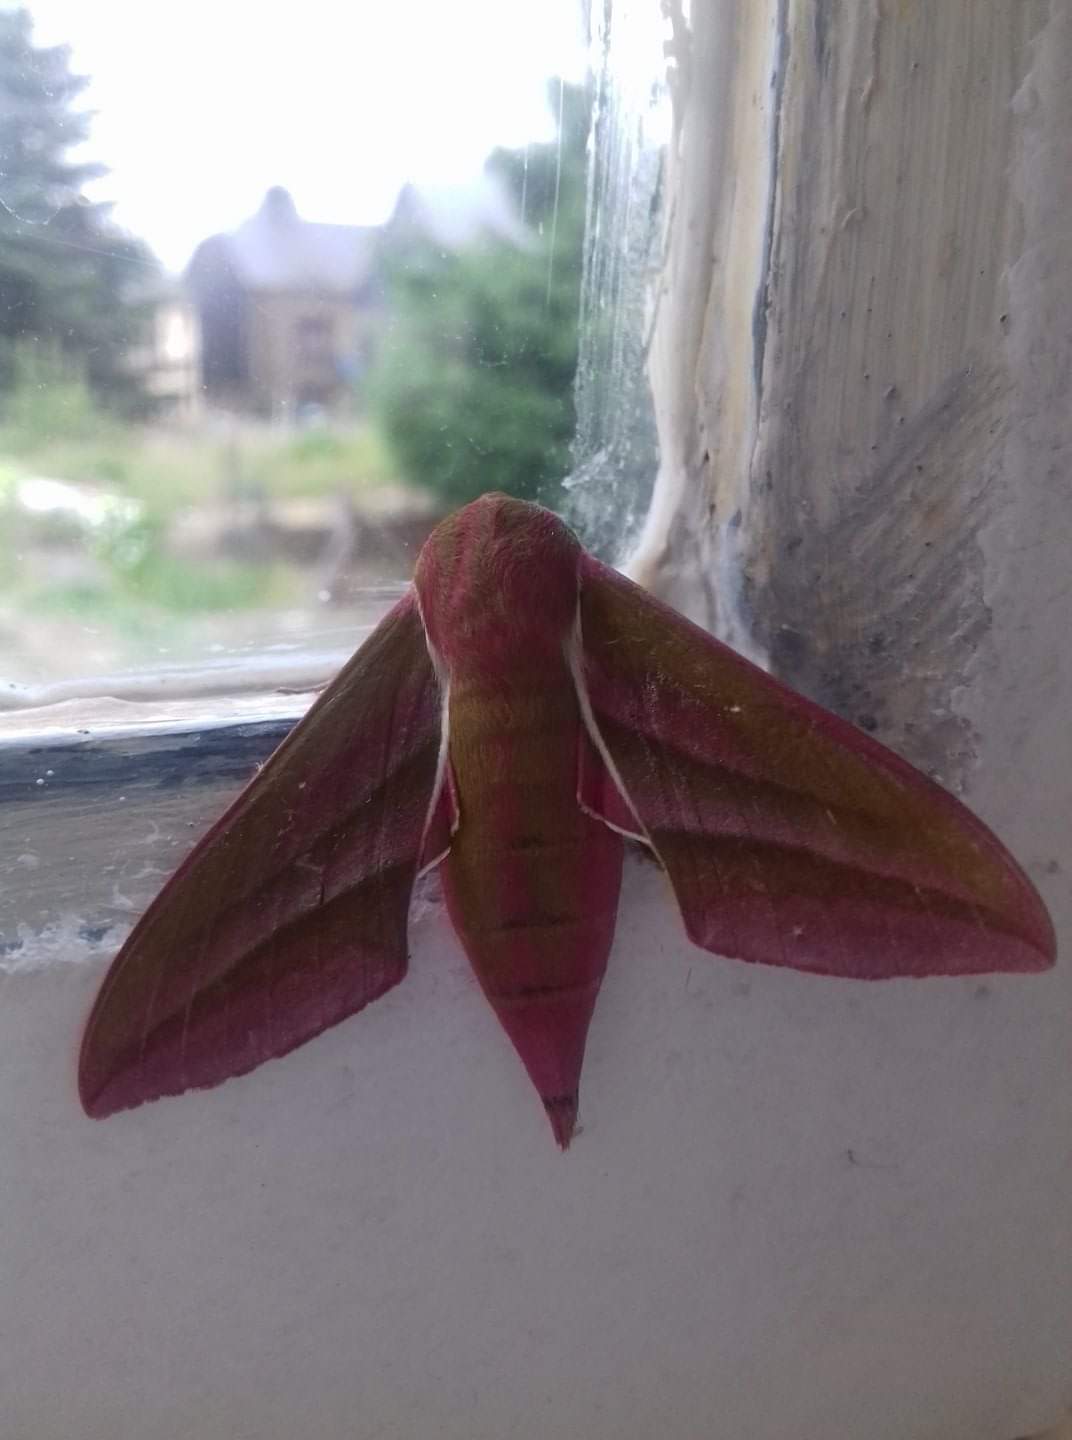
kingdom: Animalia
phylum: Arthropoda
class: Insecta
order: Lepidoptera
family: Sphingidae
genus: Deilephila
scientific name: Deilephila elpenor
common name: Elephant hawk-moth
